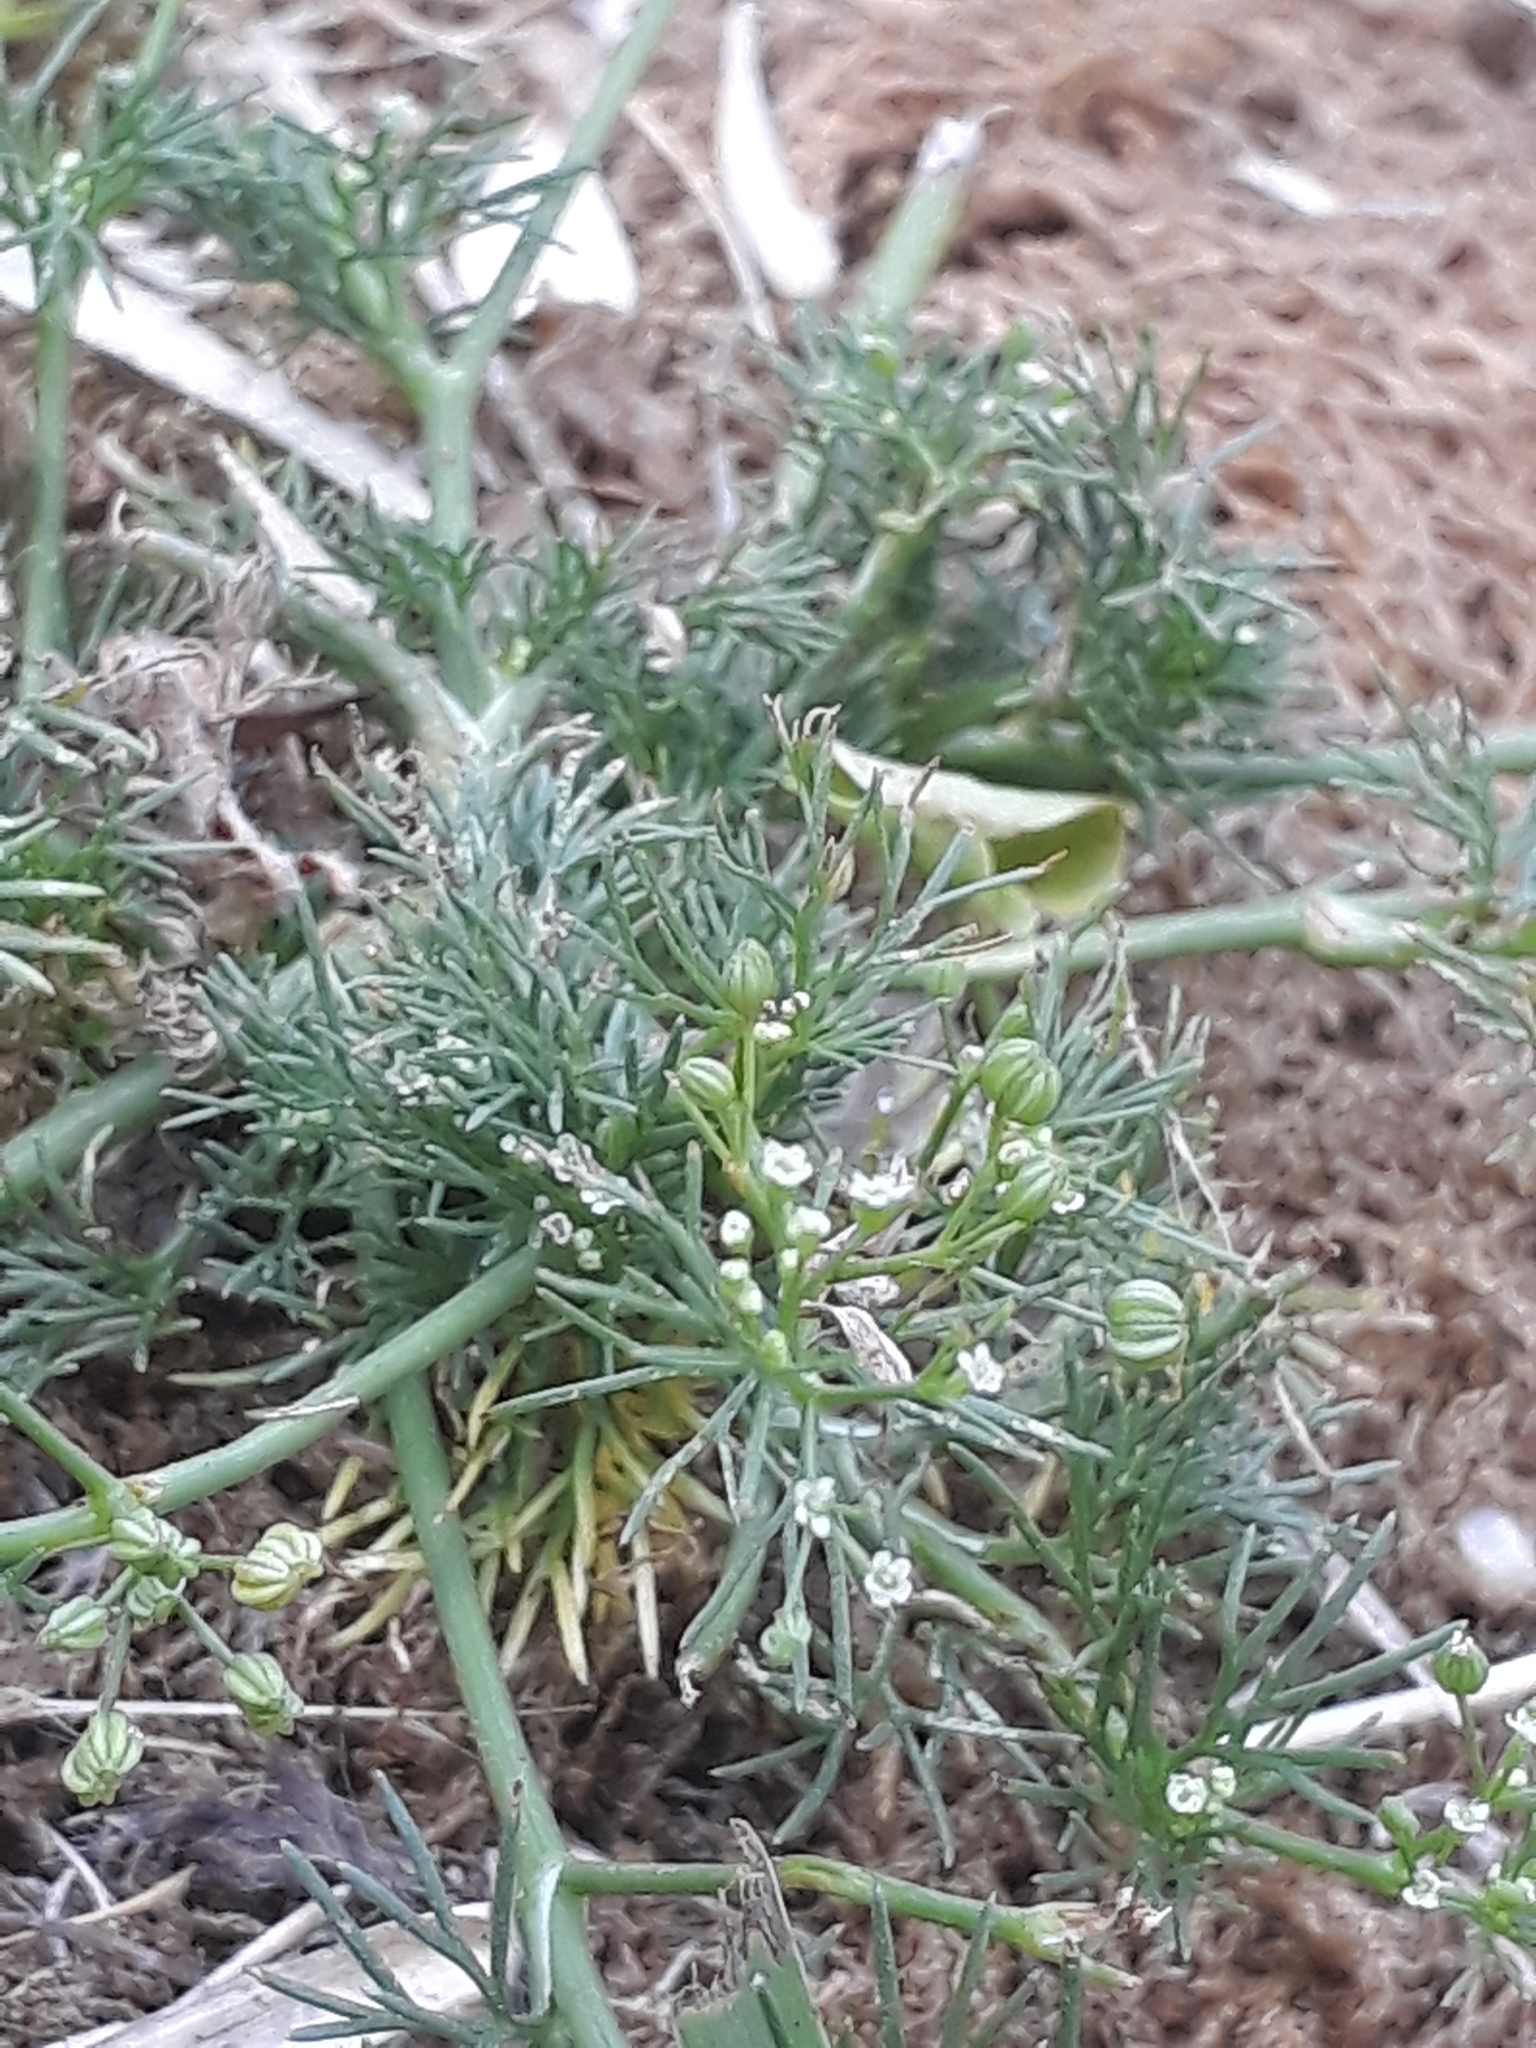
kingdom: Plantae
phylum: Tracheophyta
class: Magnoliopsida
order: Apiales
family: Apiaceae
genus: Cyclospermum
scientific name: Cyclospermum leptophyllum
